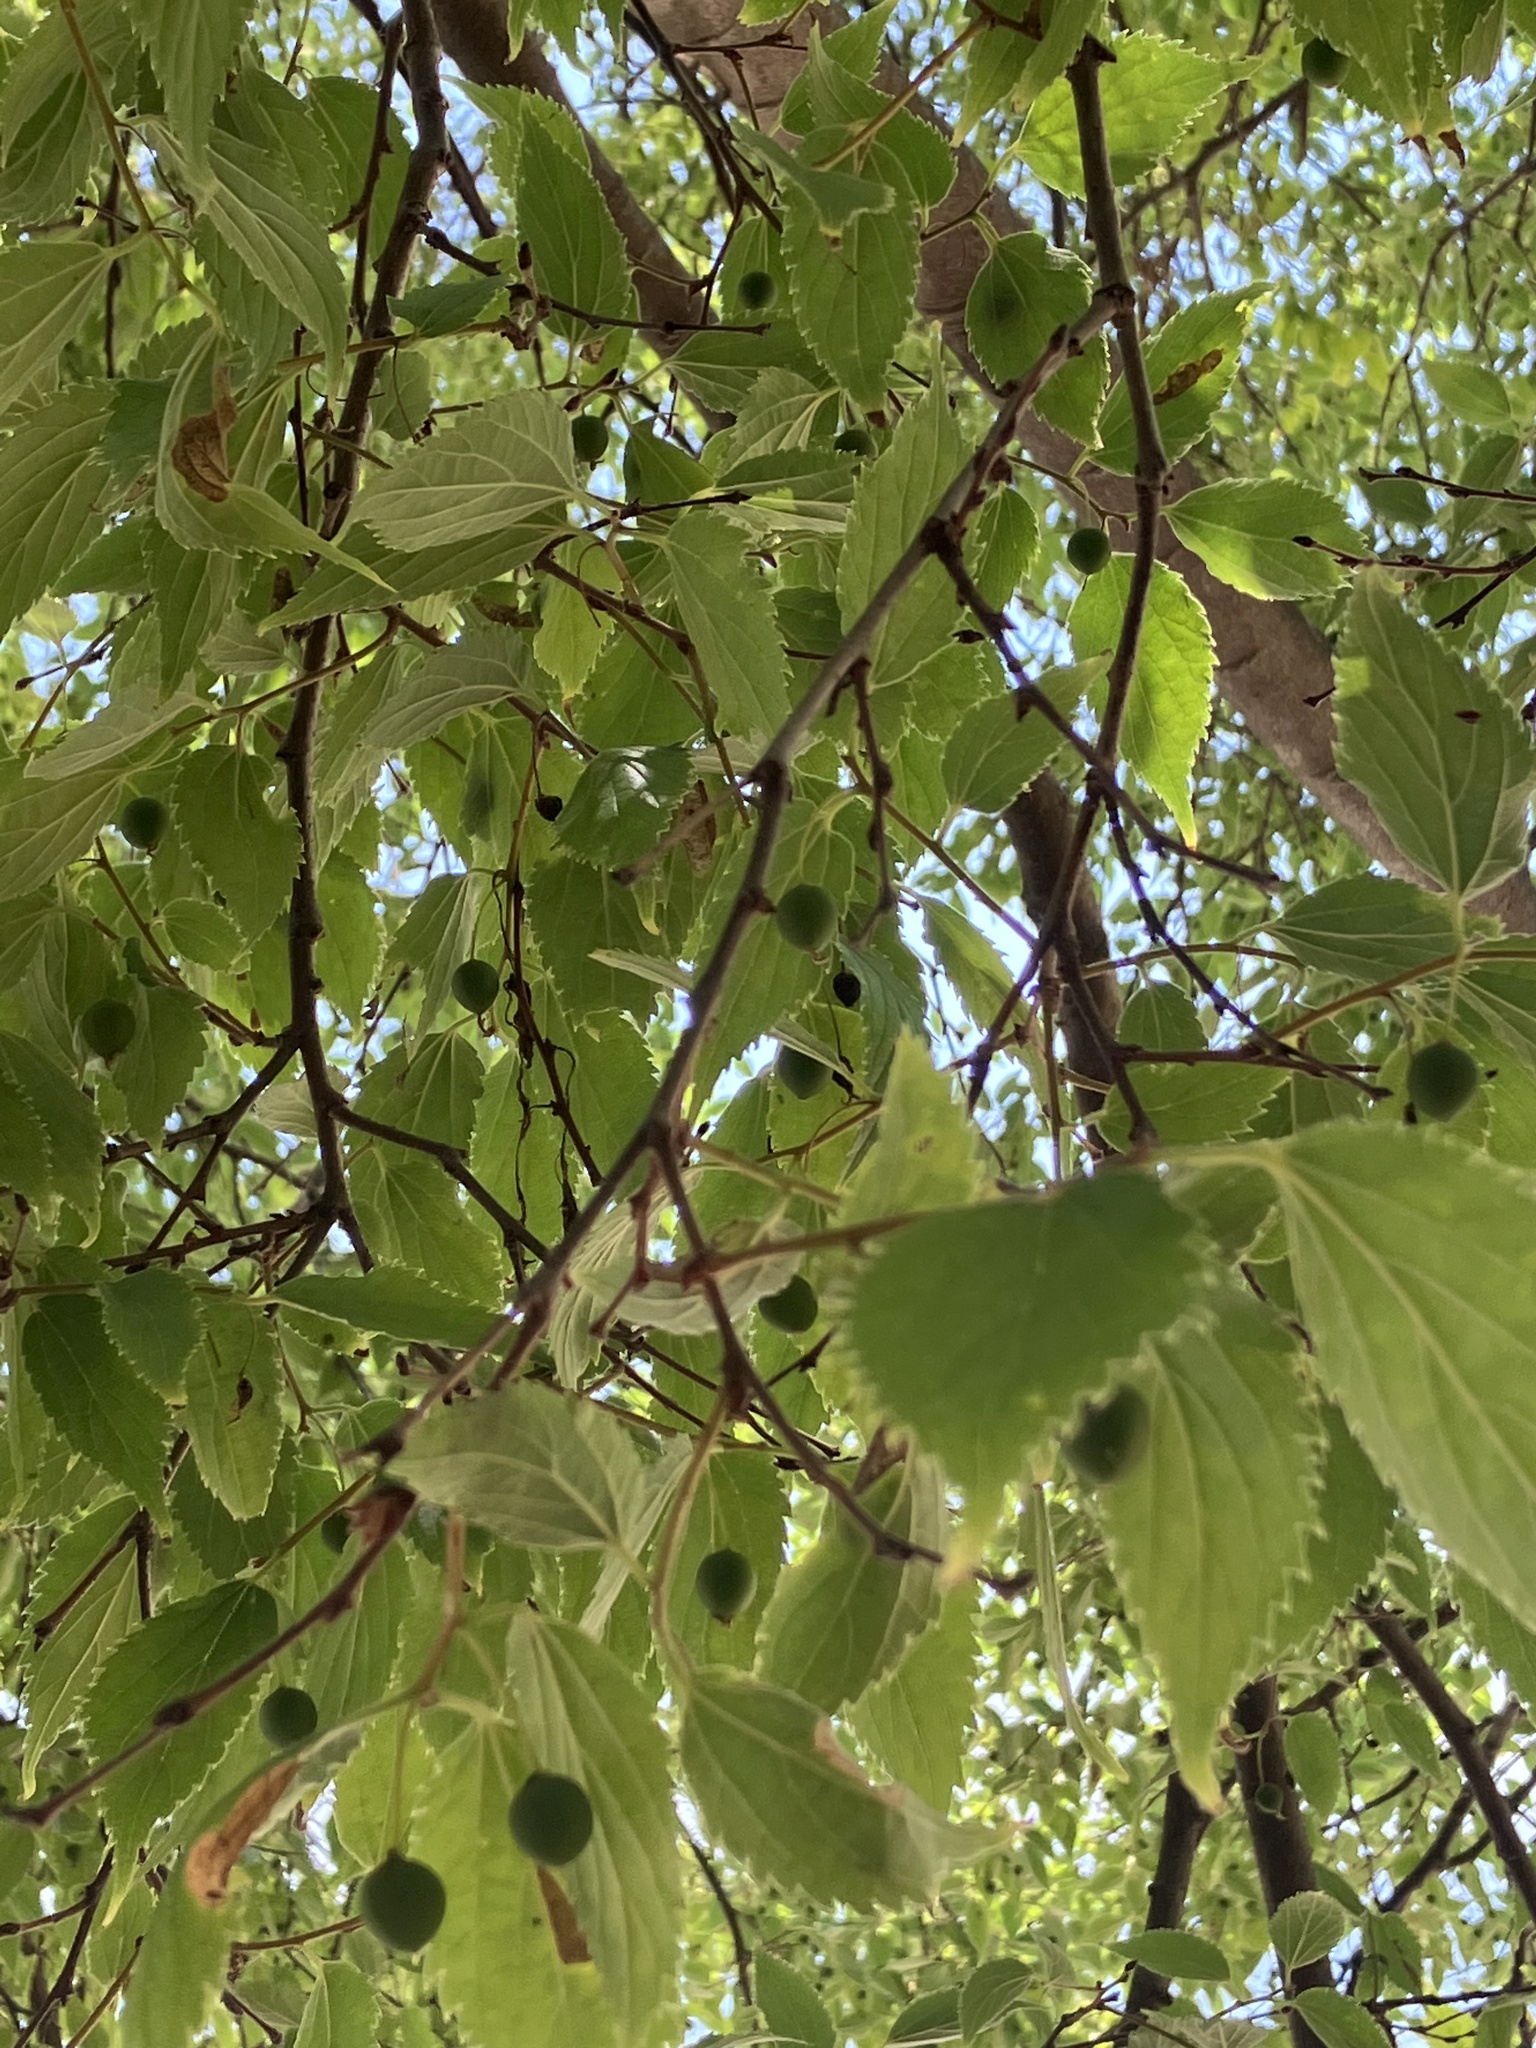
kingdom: Plantae
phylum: Tracheophyta
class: Magnoliopsida
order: Rosales
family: Cannabaceae
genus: Celtis
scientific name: Celtis australis
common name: European hackberry
